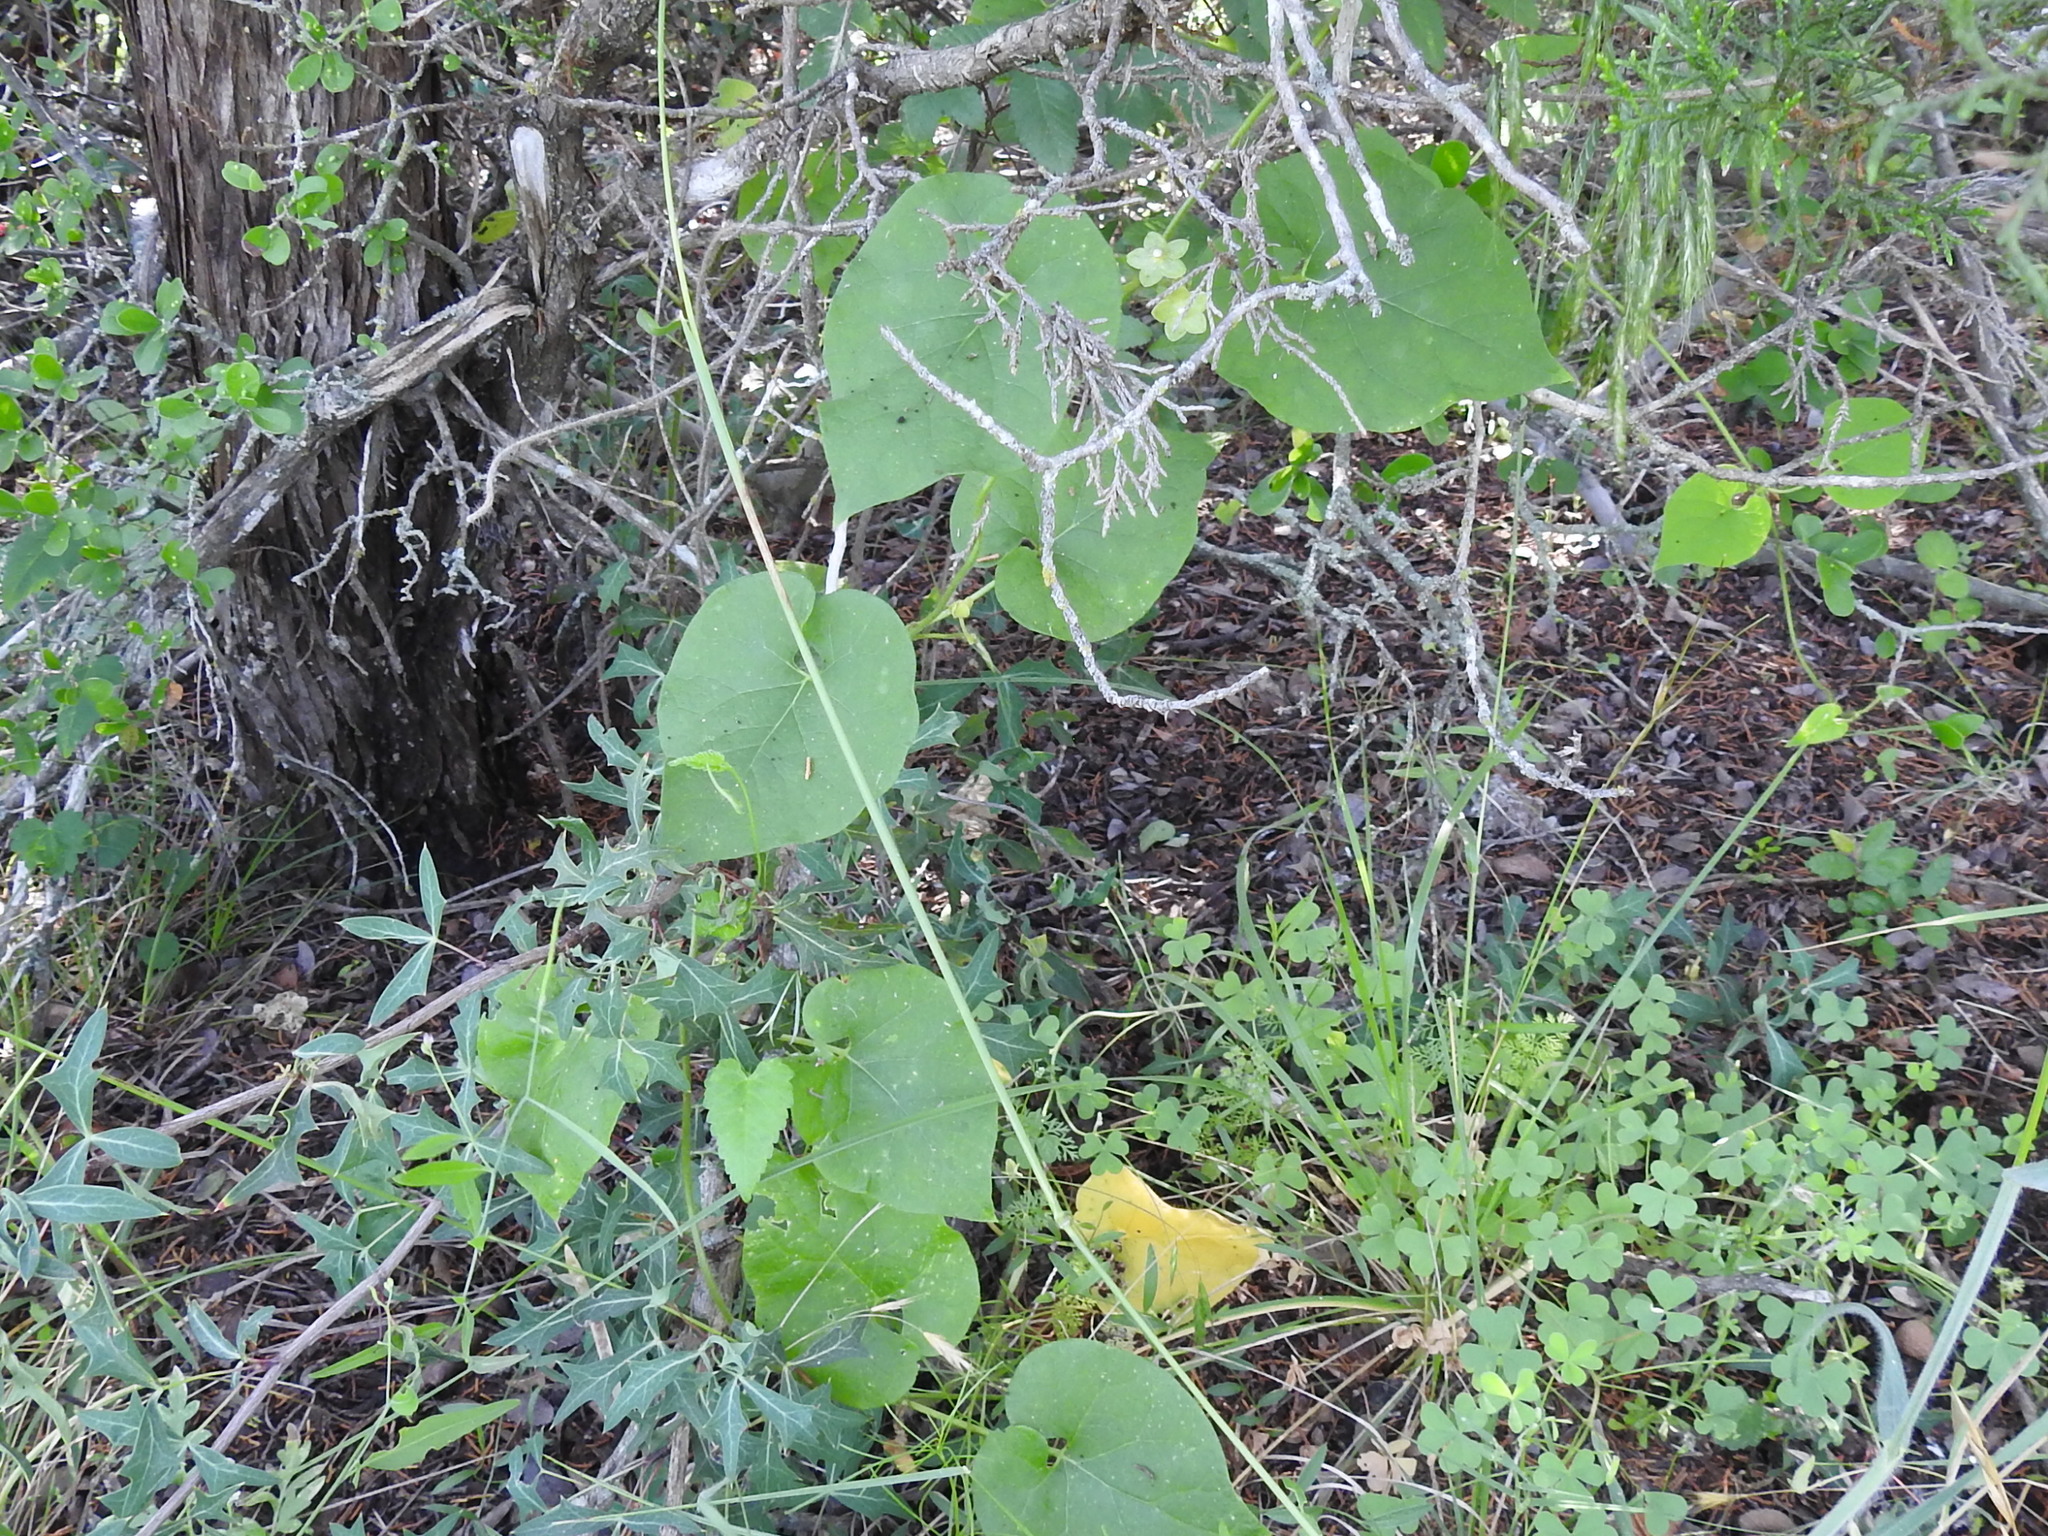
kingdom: Plantae
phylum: Tracheophyta
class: Magnoliopsida
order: Gentianales
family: Apocynaceae
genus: Dictyanthus
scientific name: Dictyanthus reticulatus
